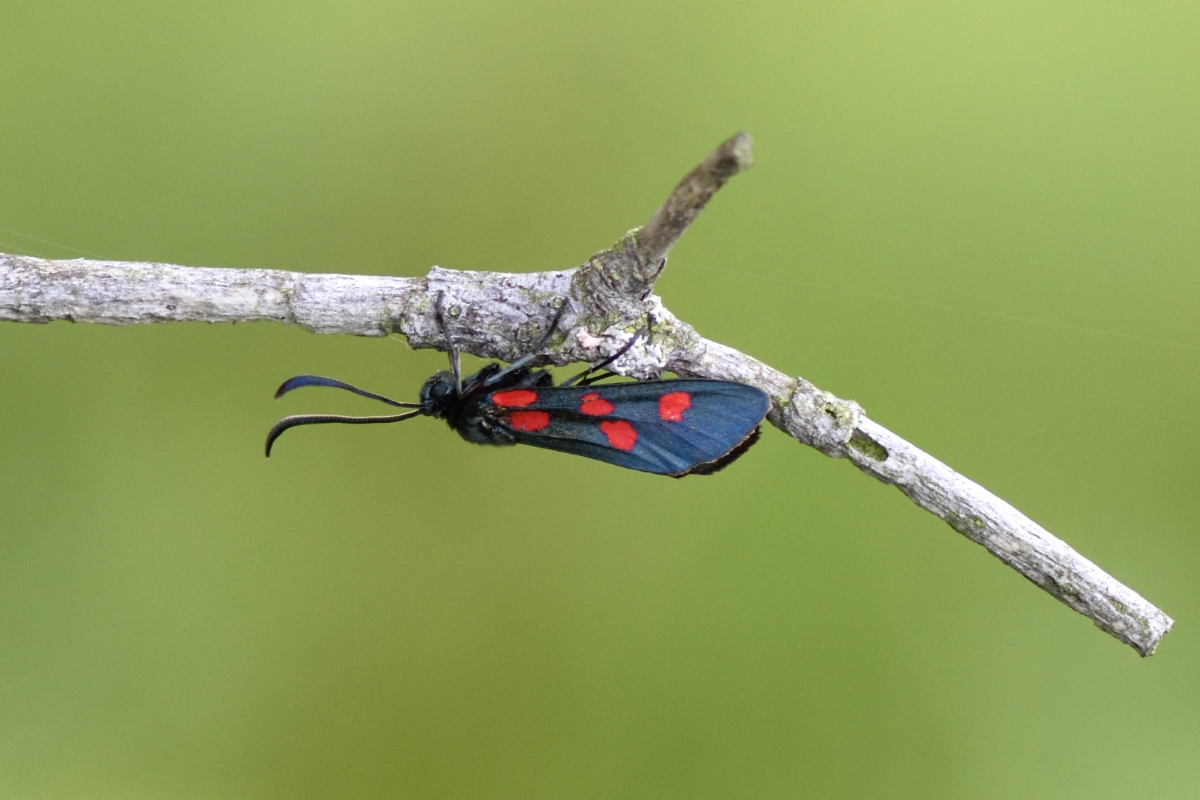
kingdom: Animalia
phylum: Arthropoda
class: Insecta
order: Lepidoptera
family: Zygaenidae
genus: Zygaena
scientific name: Zygaena angelicae
